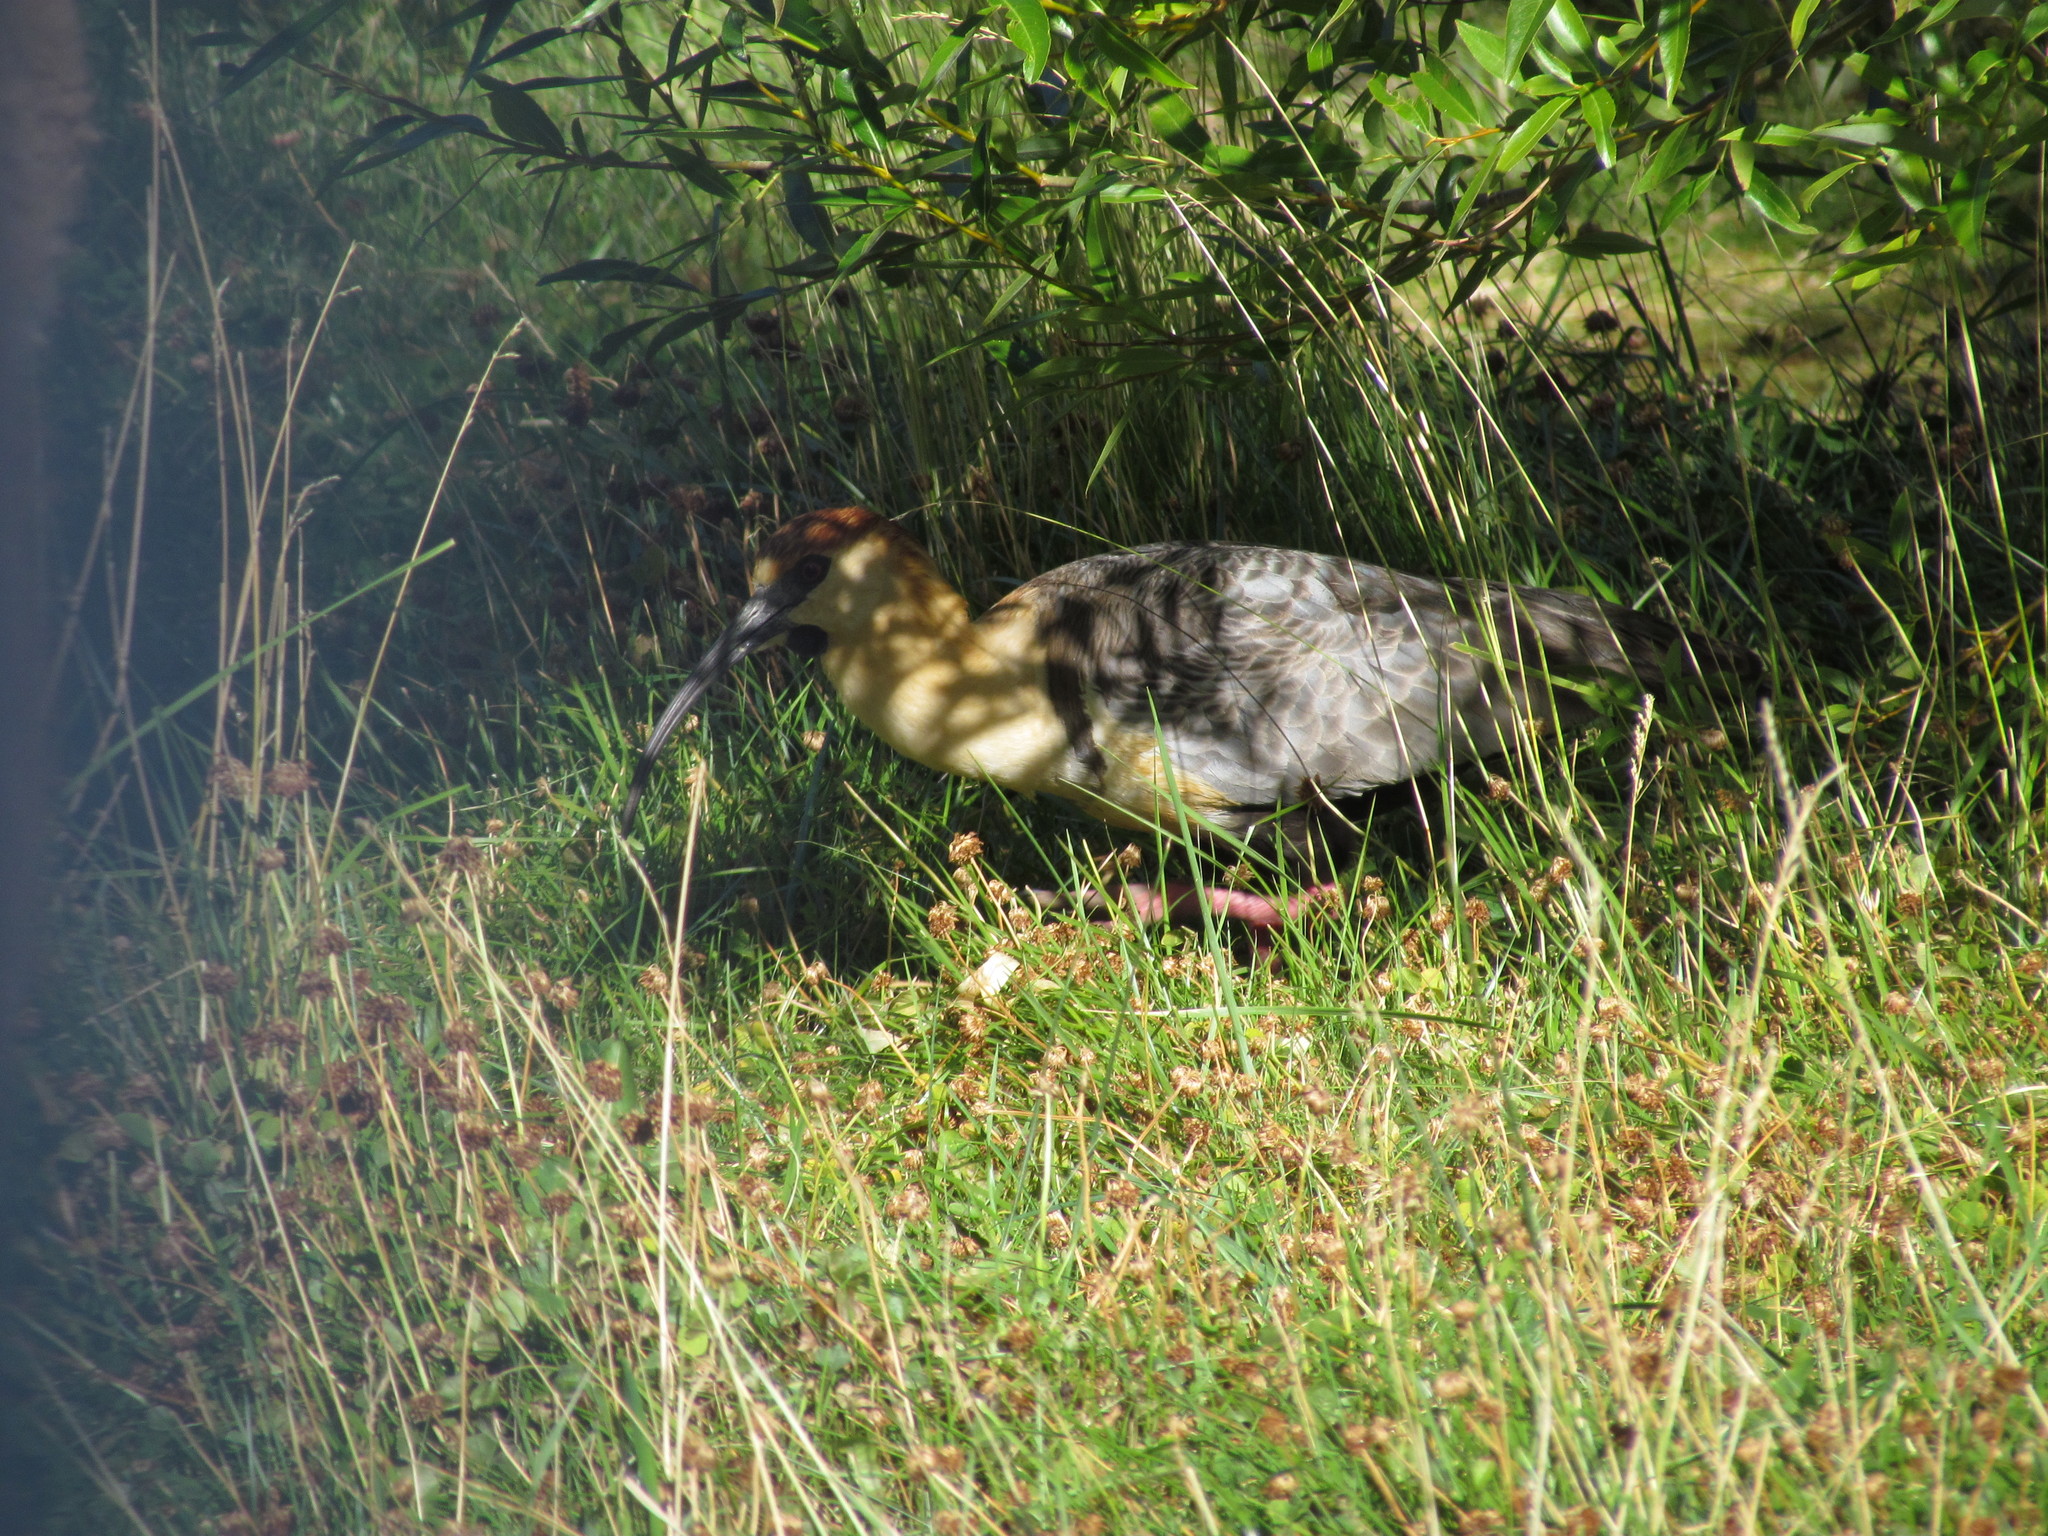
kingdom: Animalia
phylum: Chordata
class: Aves
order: Pelecaniformes
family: Threskiornithidae
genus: Theristicus
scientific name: Theristicus melanopis
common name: Black-faced ibis
